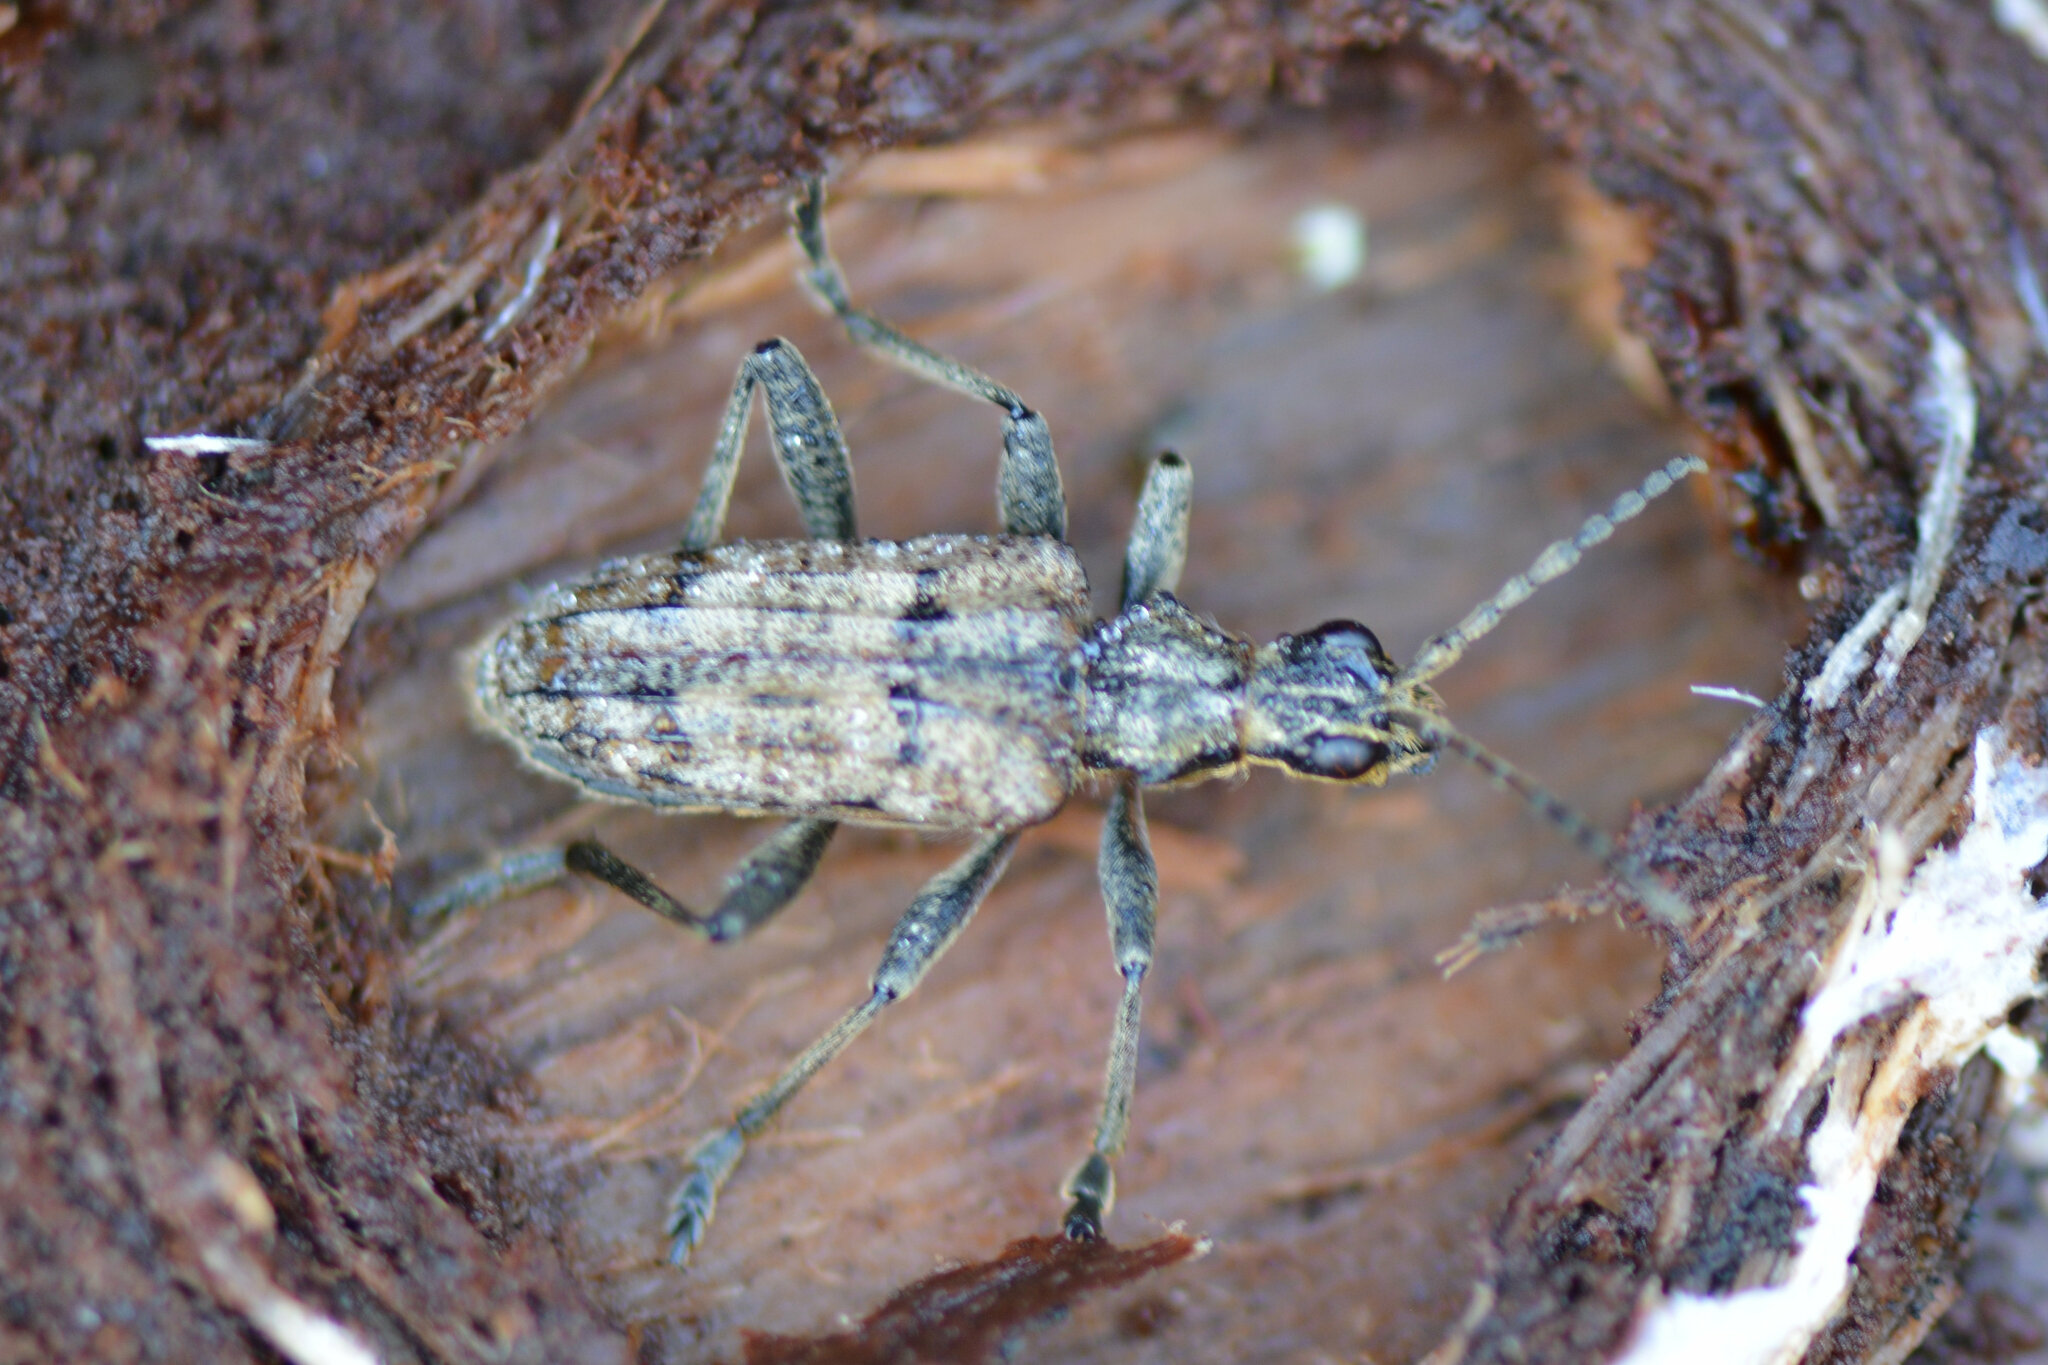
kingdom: Animalia
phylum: Arthropoda
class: Insecta
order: Coleoptera
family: Cerambycidae
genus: Rhagium
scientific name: Rhagium inquisitor
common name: Ribbed pine borer
